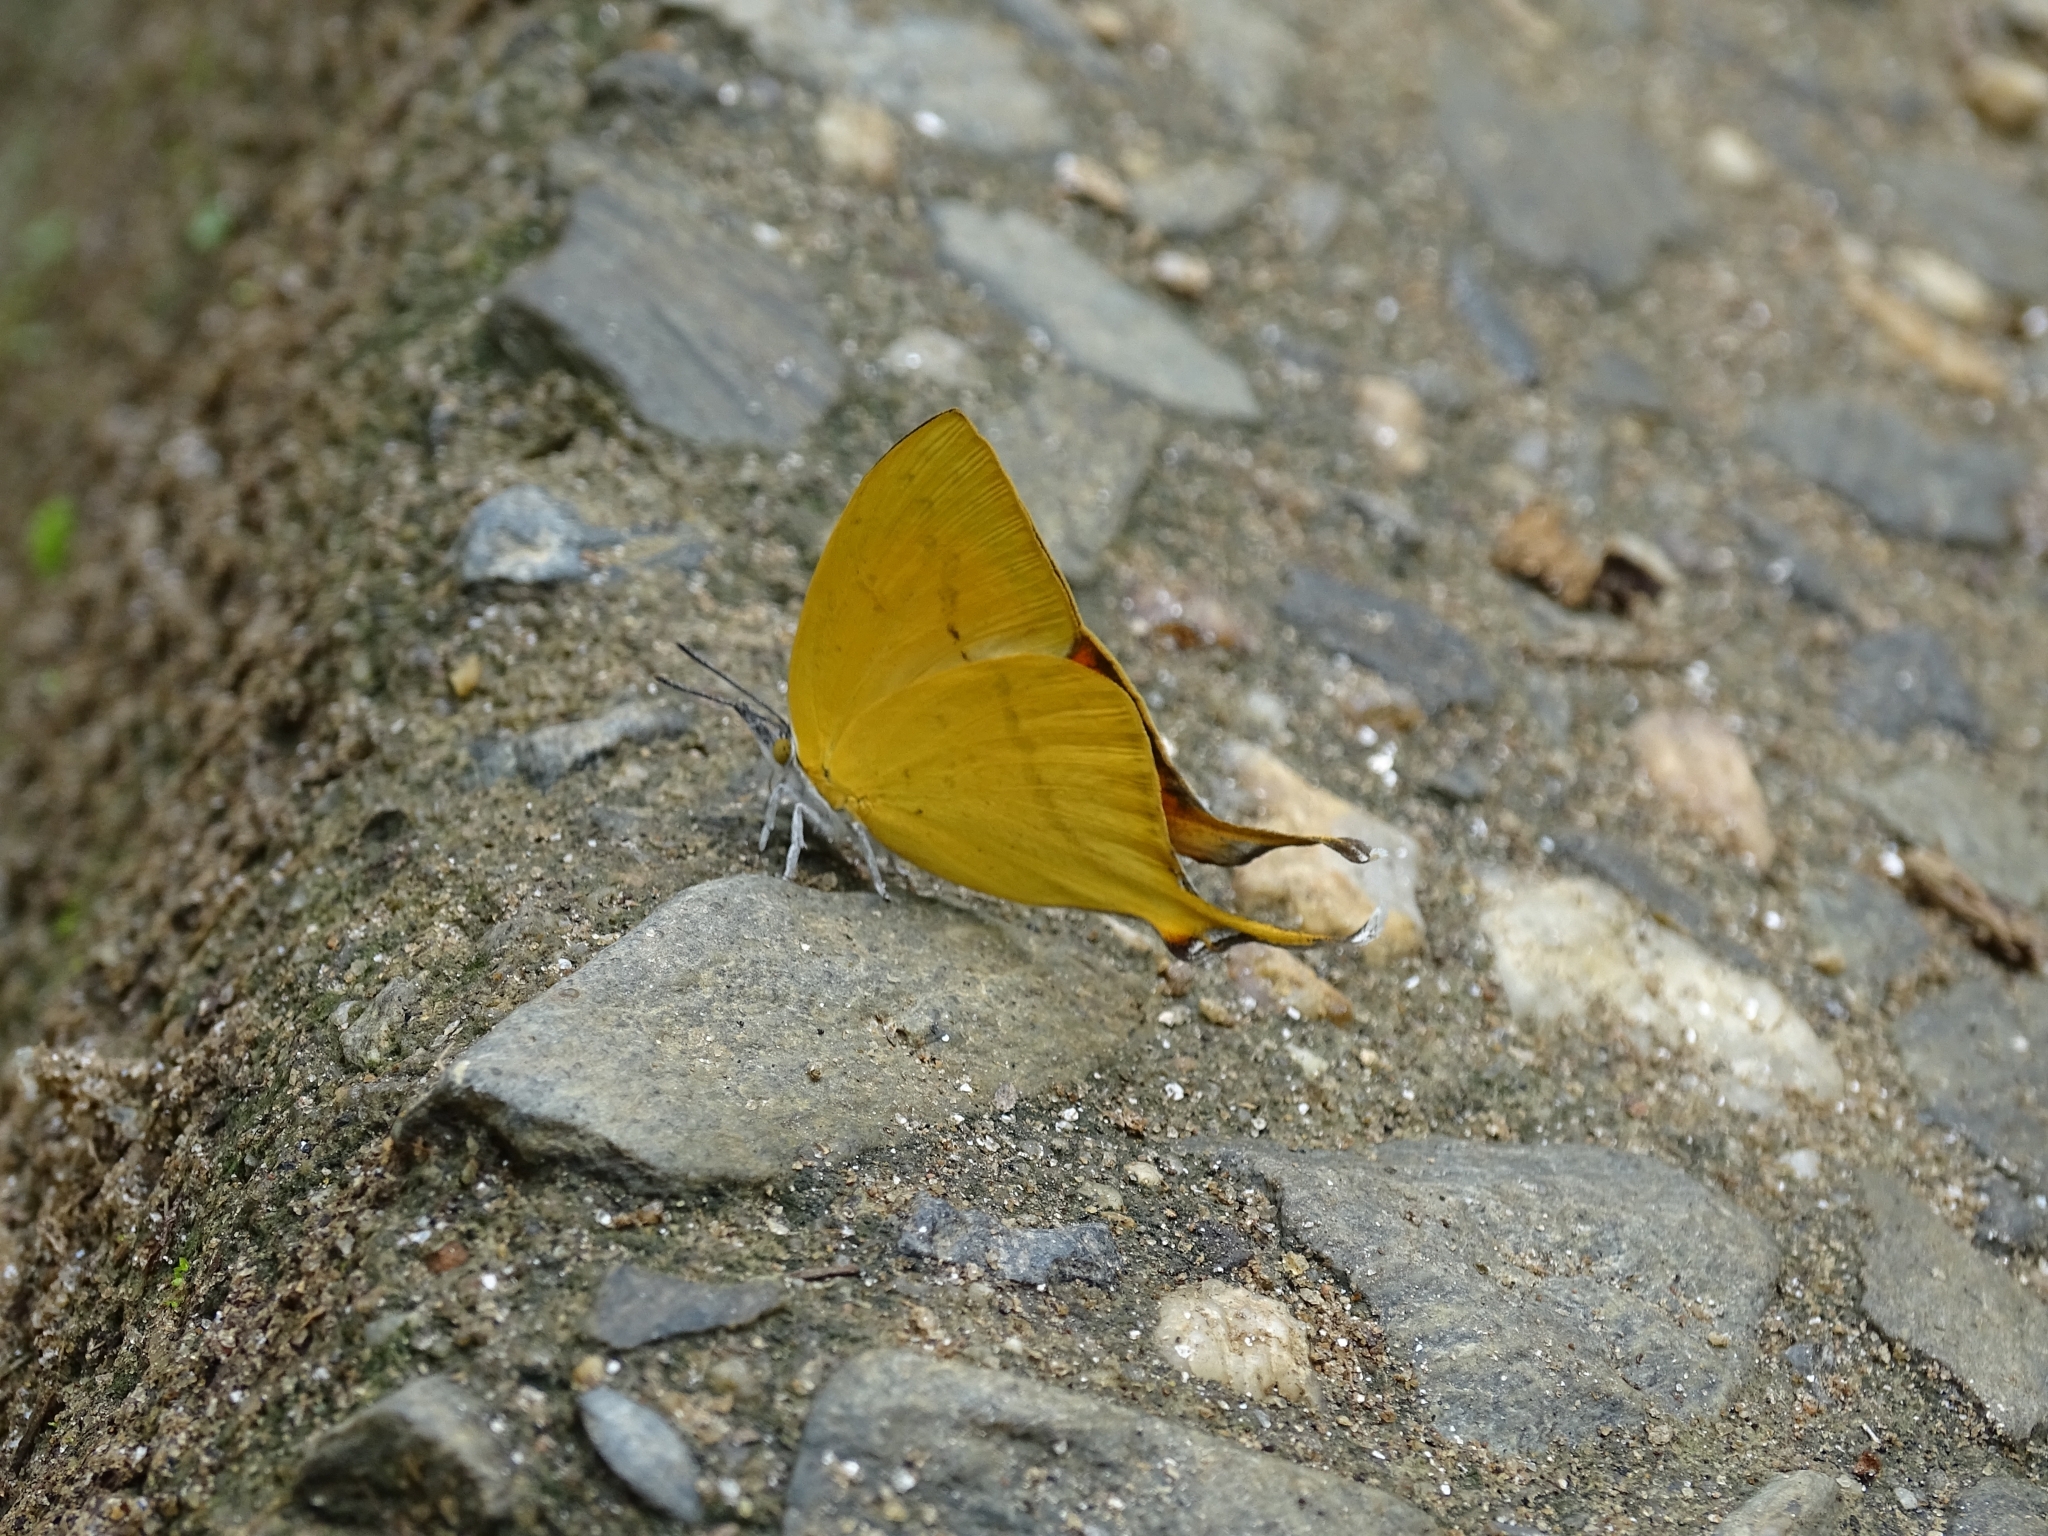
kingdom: Animalia
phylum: Arthropoda
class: Insecta
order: Lepidoptera
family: Lycaenidae
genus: Loxura
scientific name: Loxura atymnus
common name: Common yamfly
